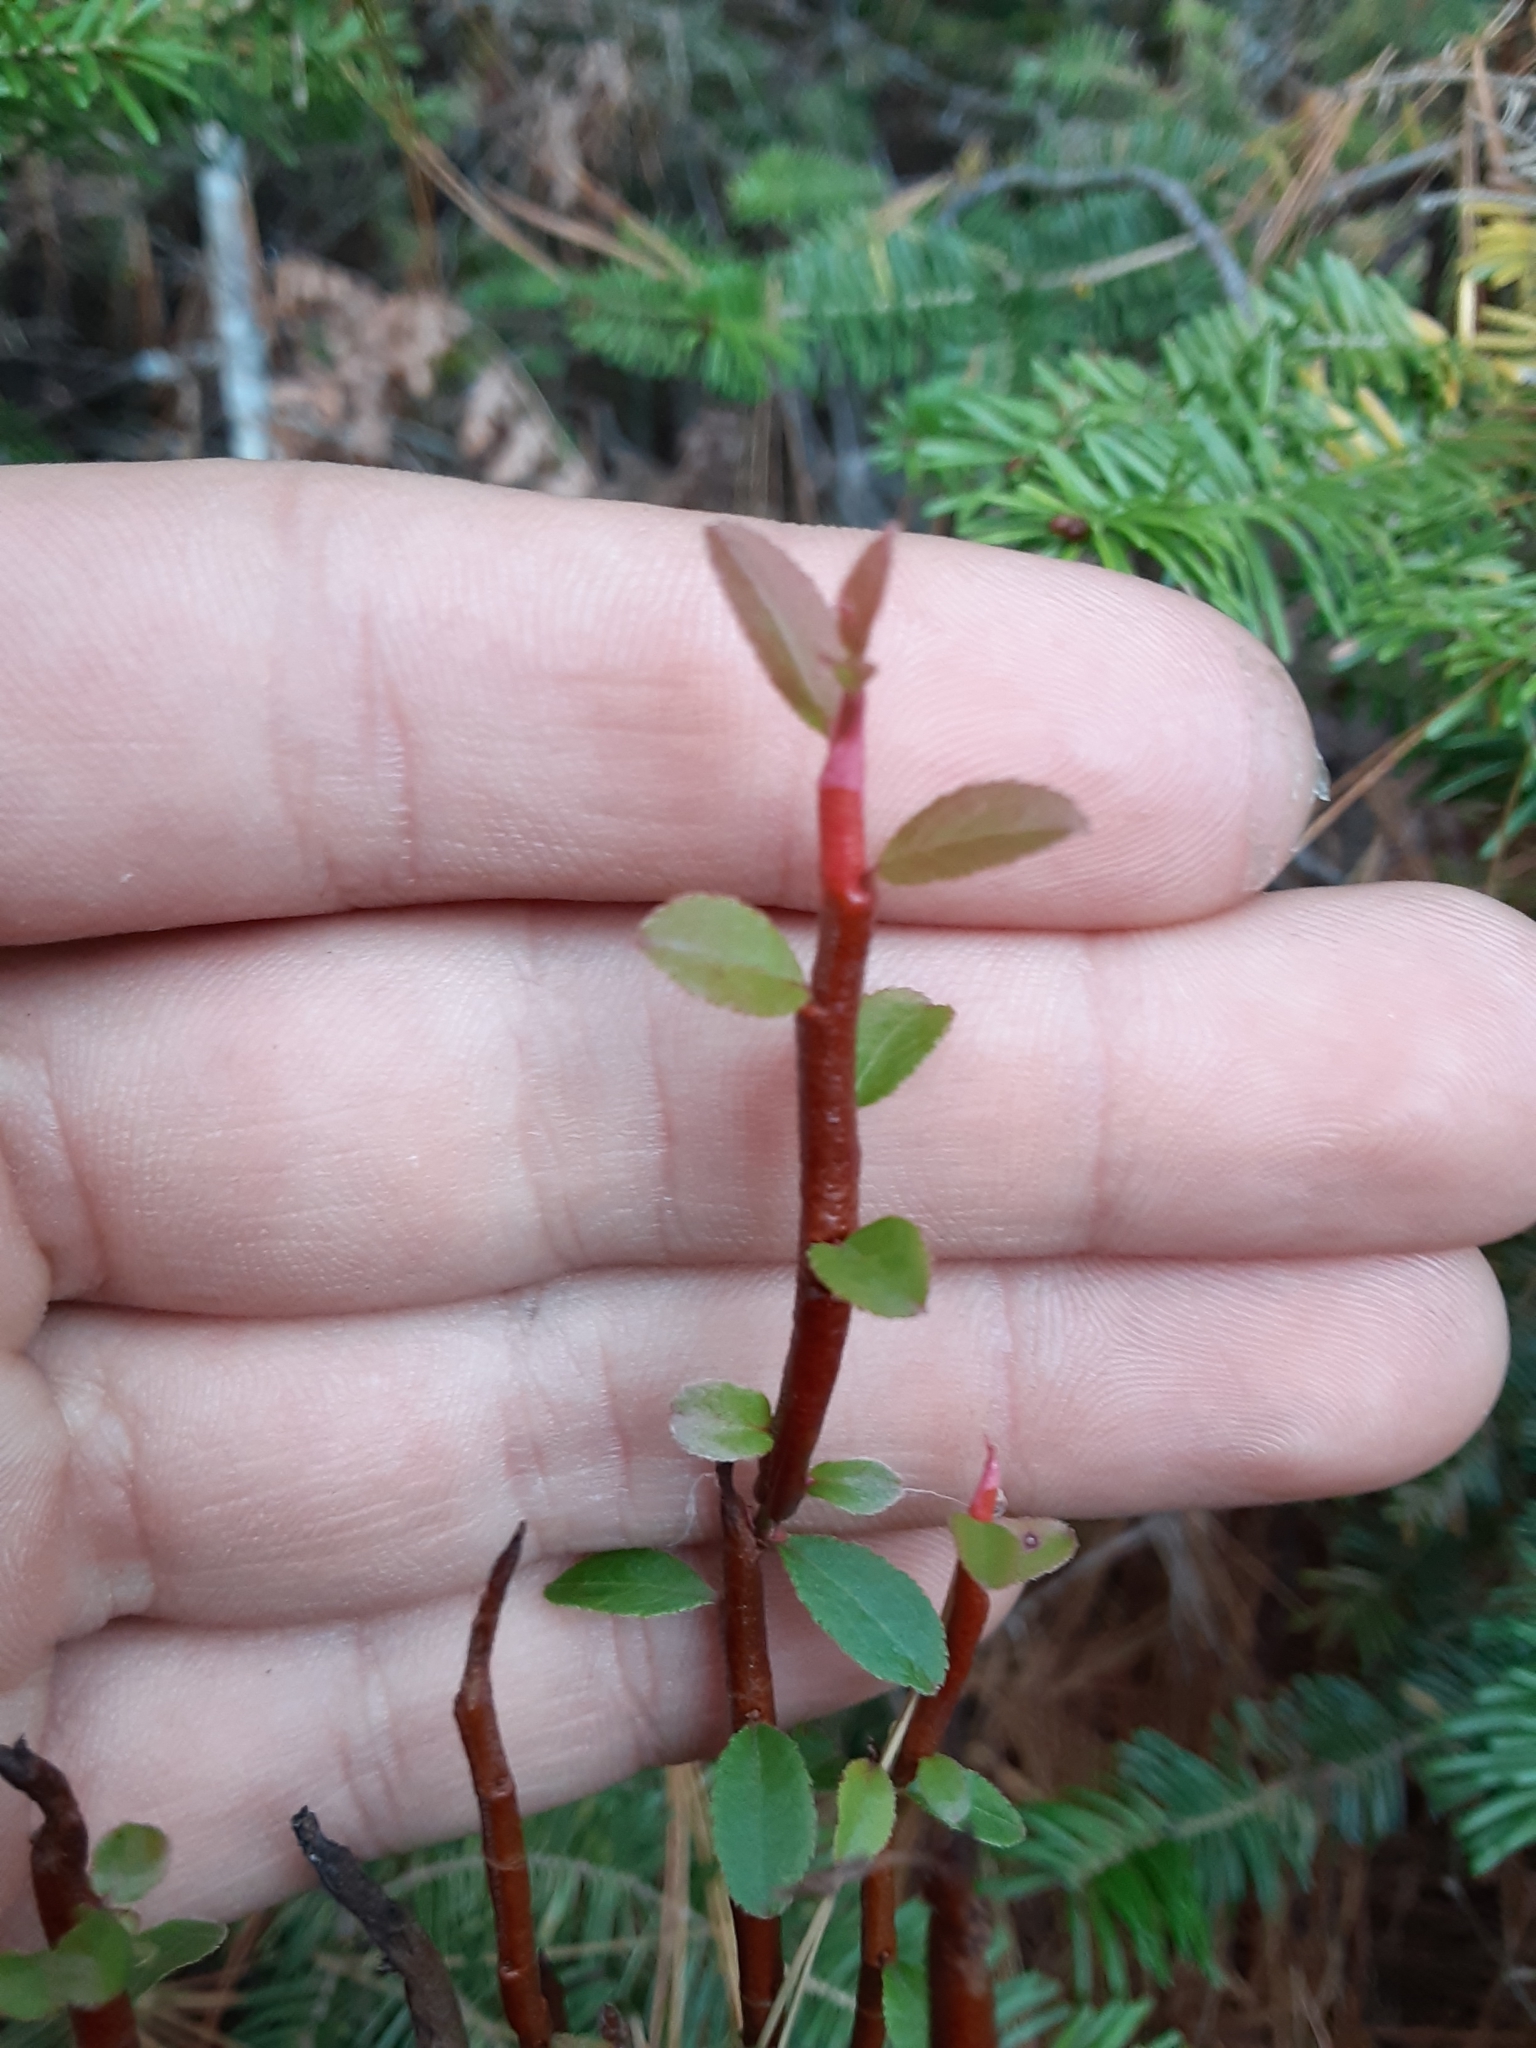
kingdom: Fungi
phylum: Basidiomycota
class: Pucciniomycetes
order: Pucciniales
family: Pucciniastraceae
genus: Calyptospora
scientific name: Calyptospora columnaris
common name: Huckleberry broom rust fungus
